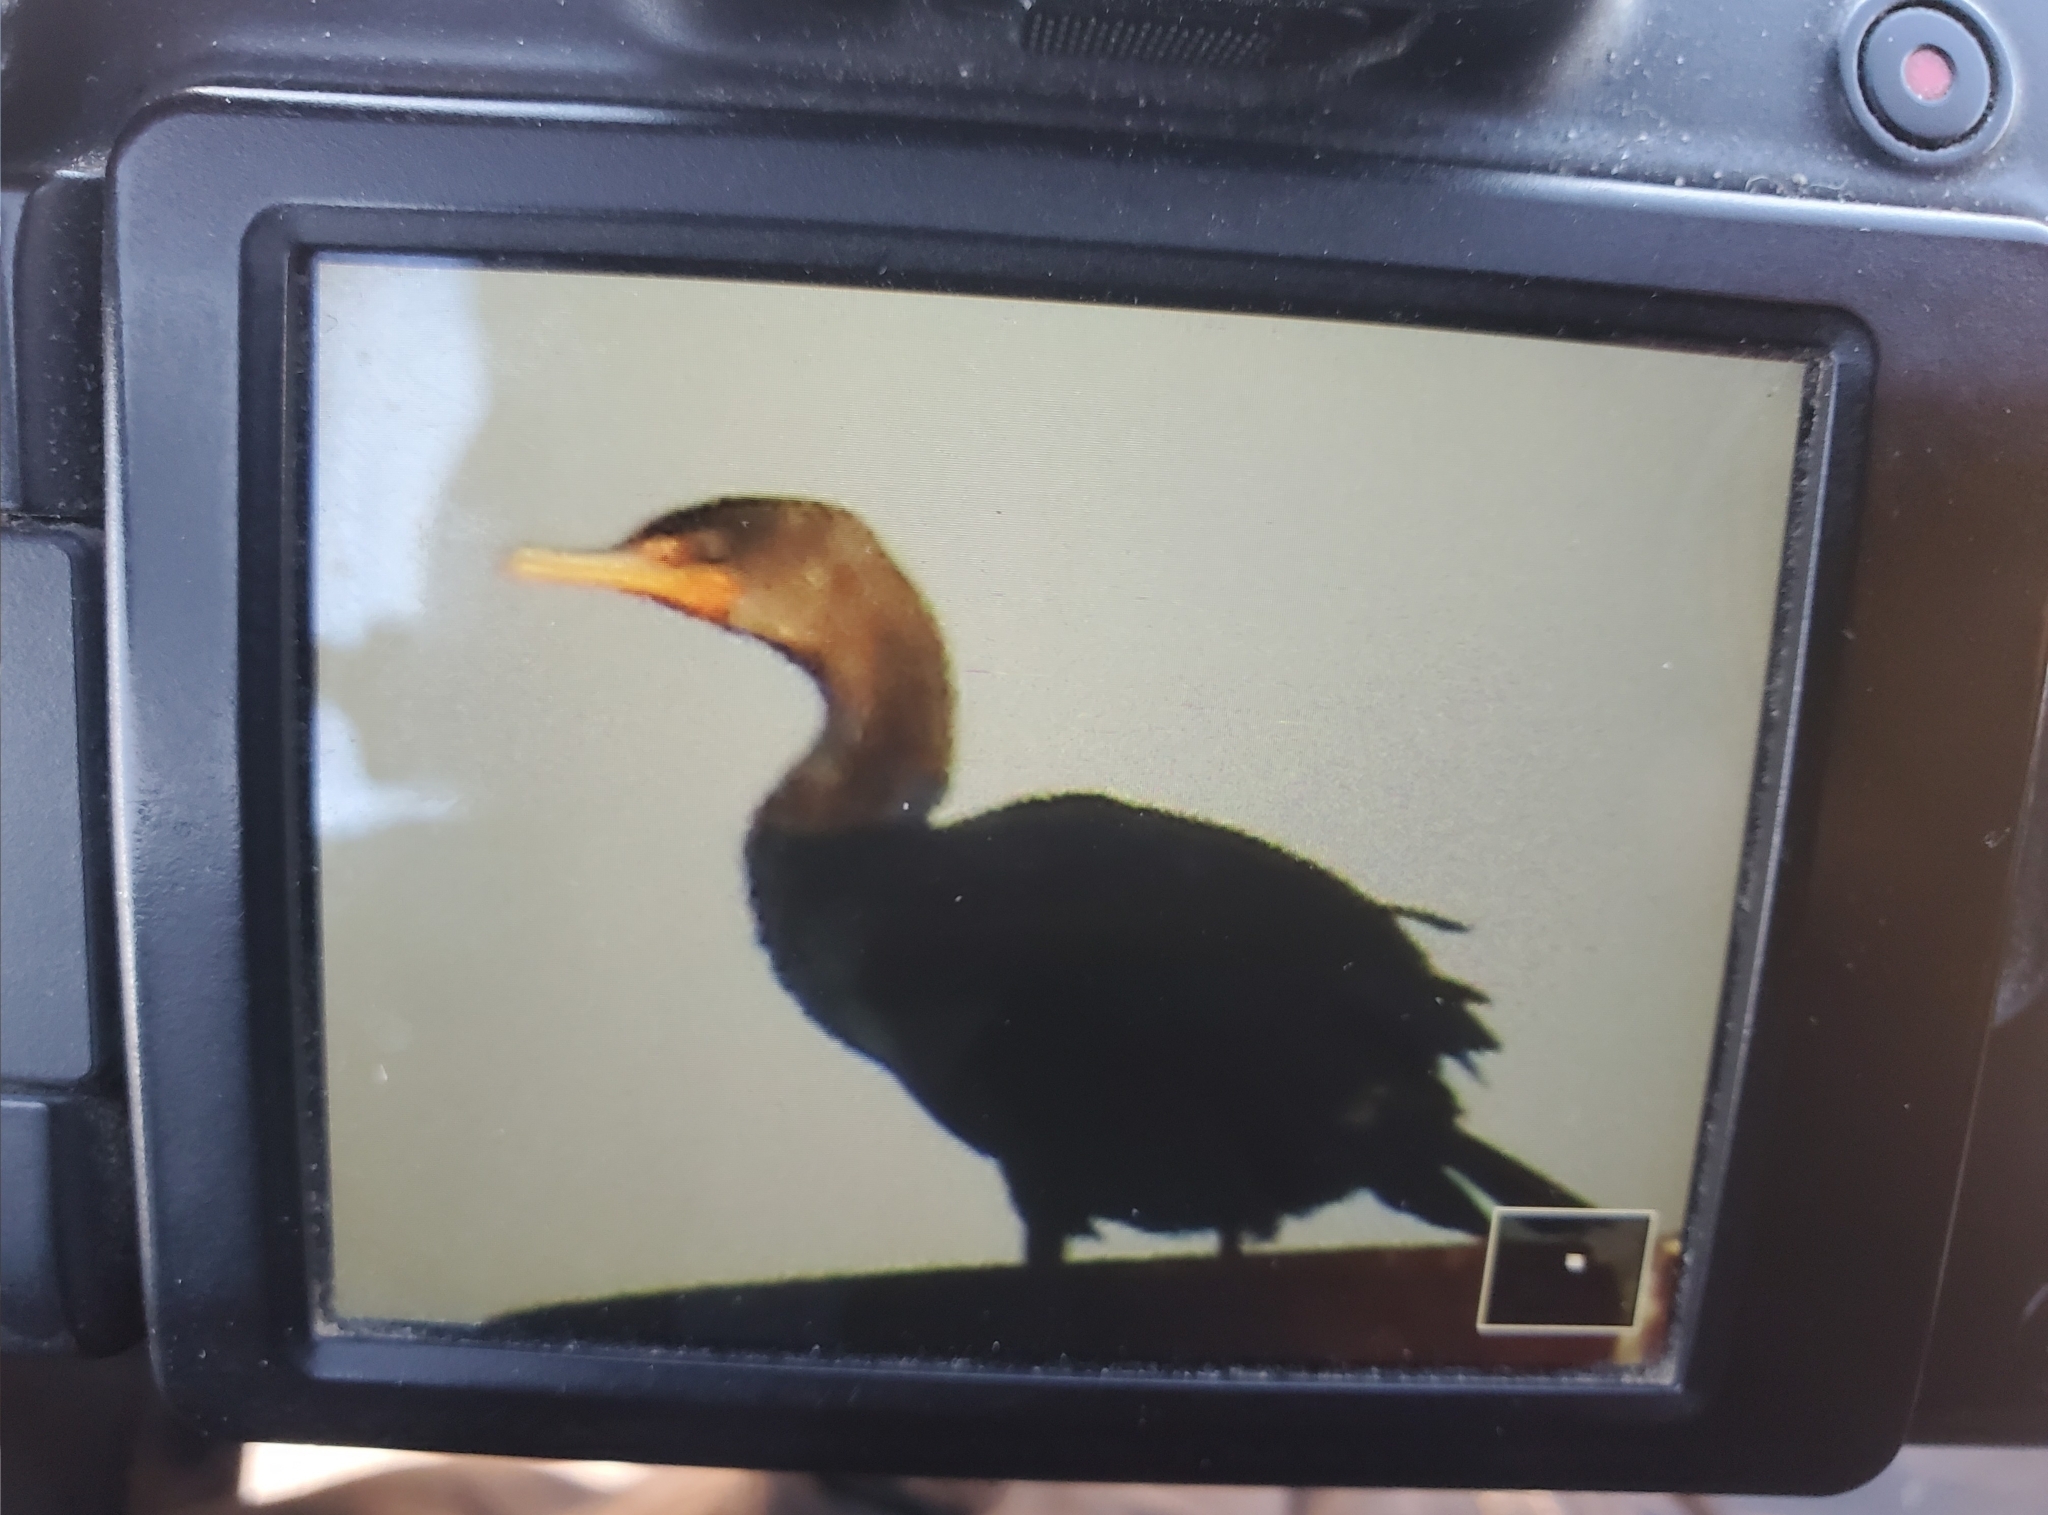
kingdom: Animalia
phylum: Chordata
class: Aves
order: Suliformes
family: Phalacrocoracidae
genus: Phalacrocorax
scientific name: Phalacrocorax auritus
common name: Double-crested cormorant
